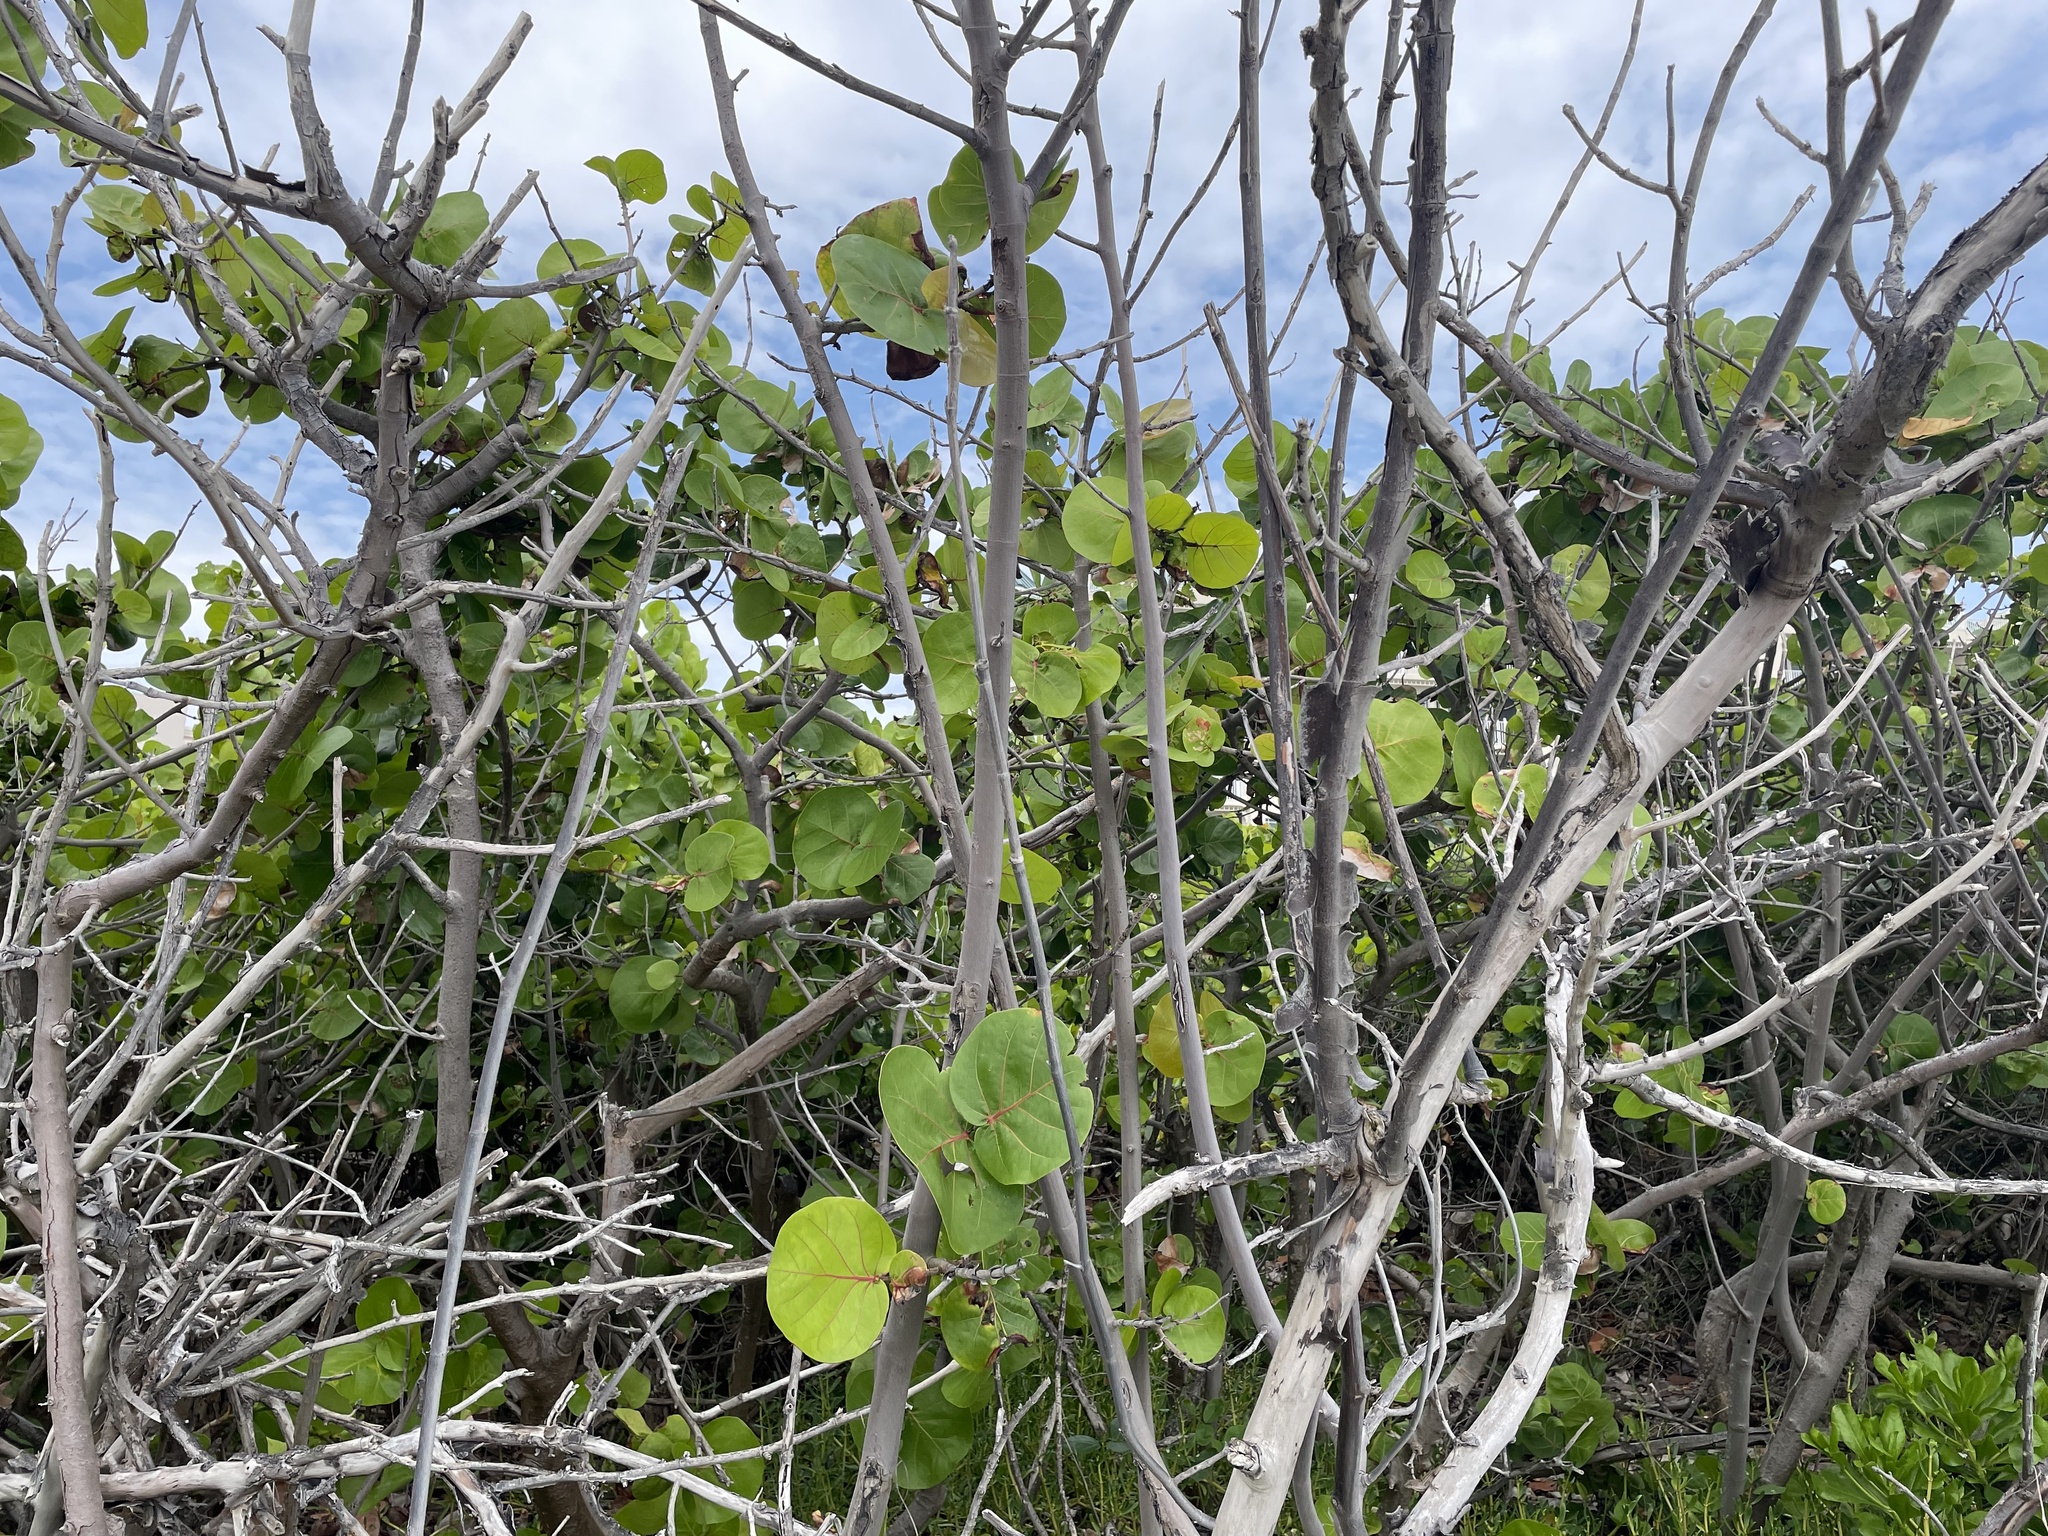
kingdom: Plantae
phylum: Tracheophyta
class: Magnoliopsida
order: Caryophyllales
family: Polygonaceae
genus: Coccoloba
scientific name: Coccoloba uvifera
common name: Seagrape
